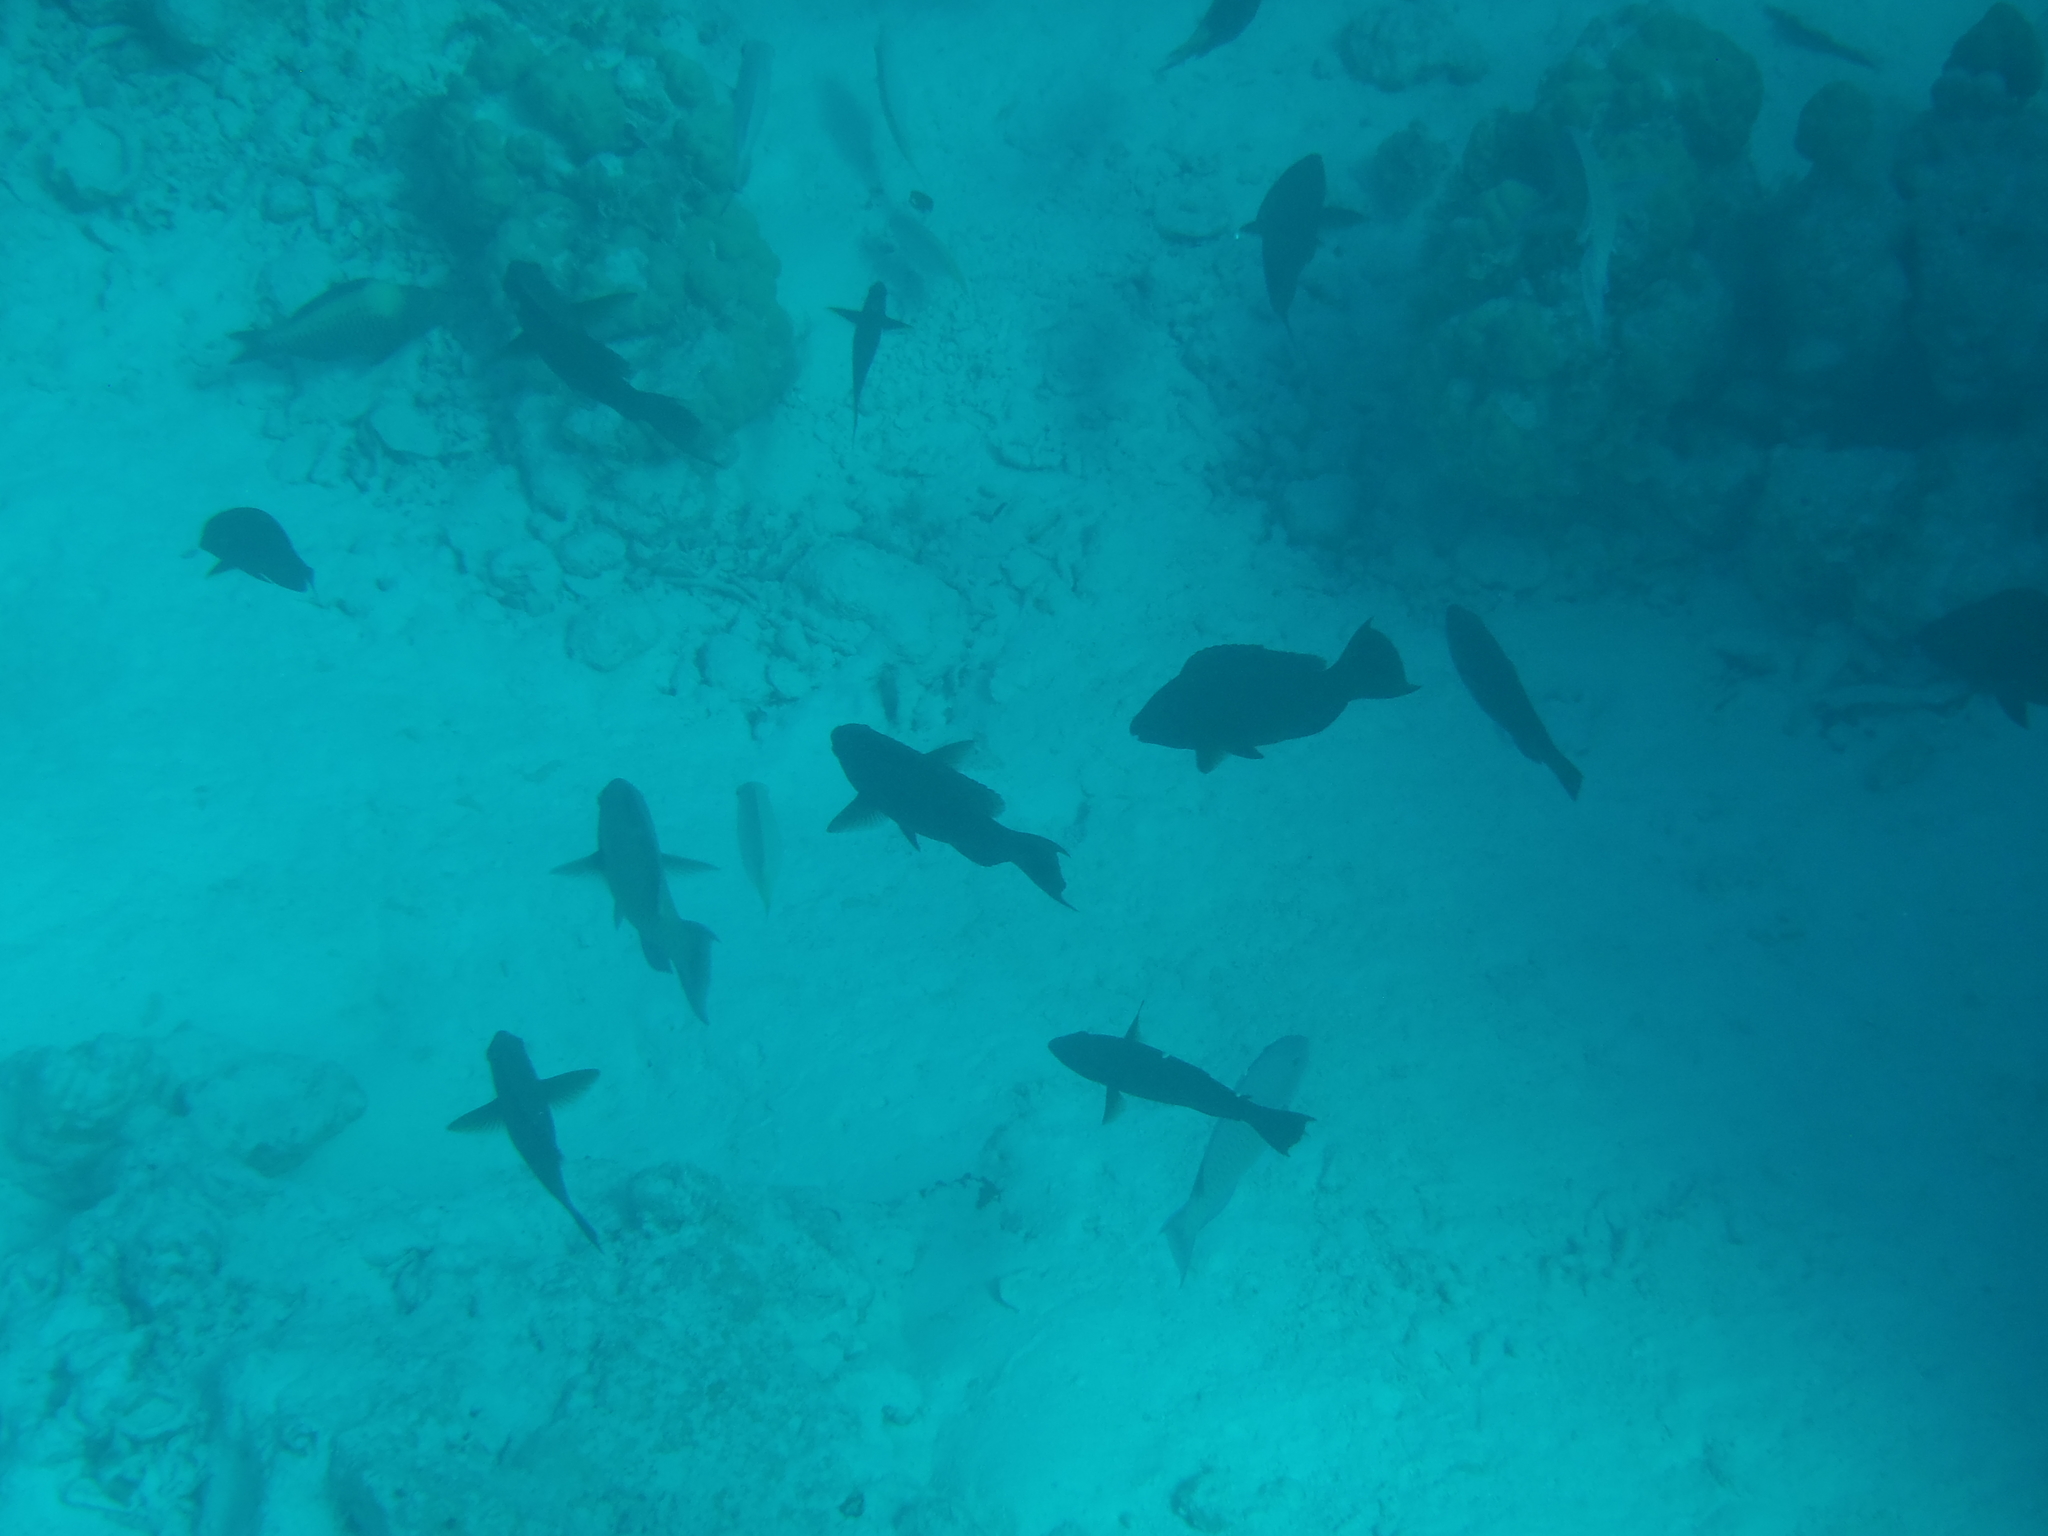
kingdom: Animalia
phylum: Chordata
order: Perciformes
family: Scaridae
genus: Scarus
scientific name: Scarus altipinnis
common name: Minifin parrotfish
